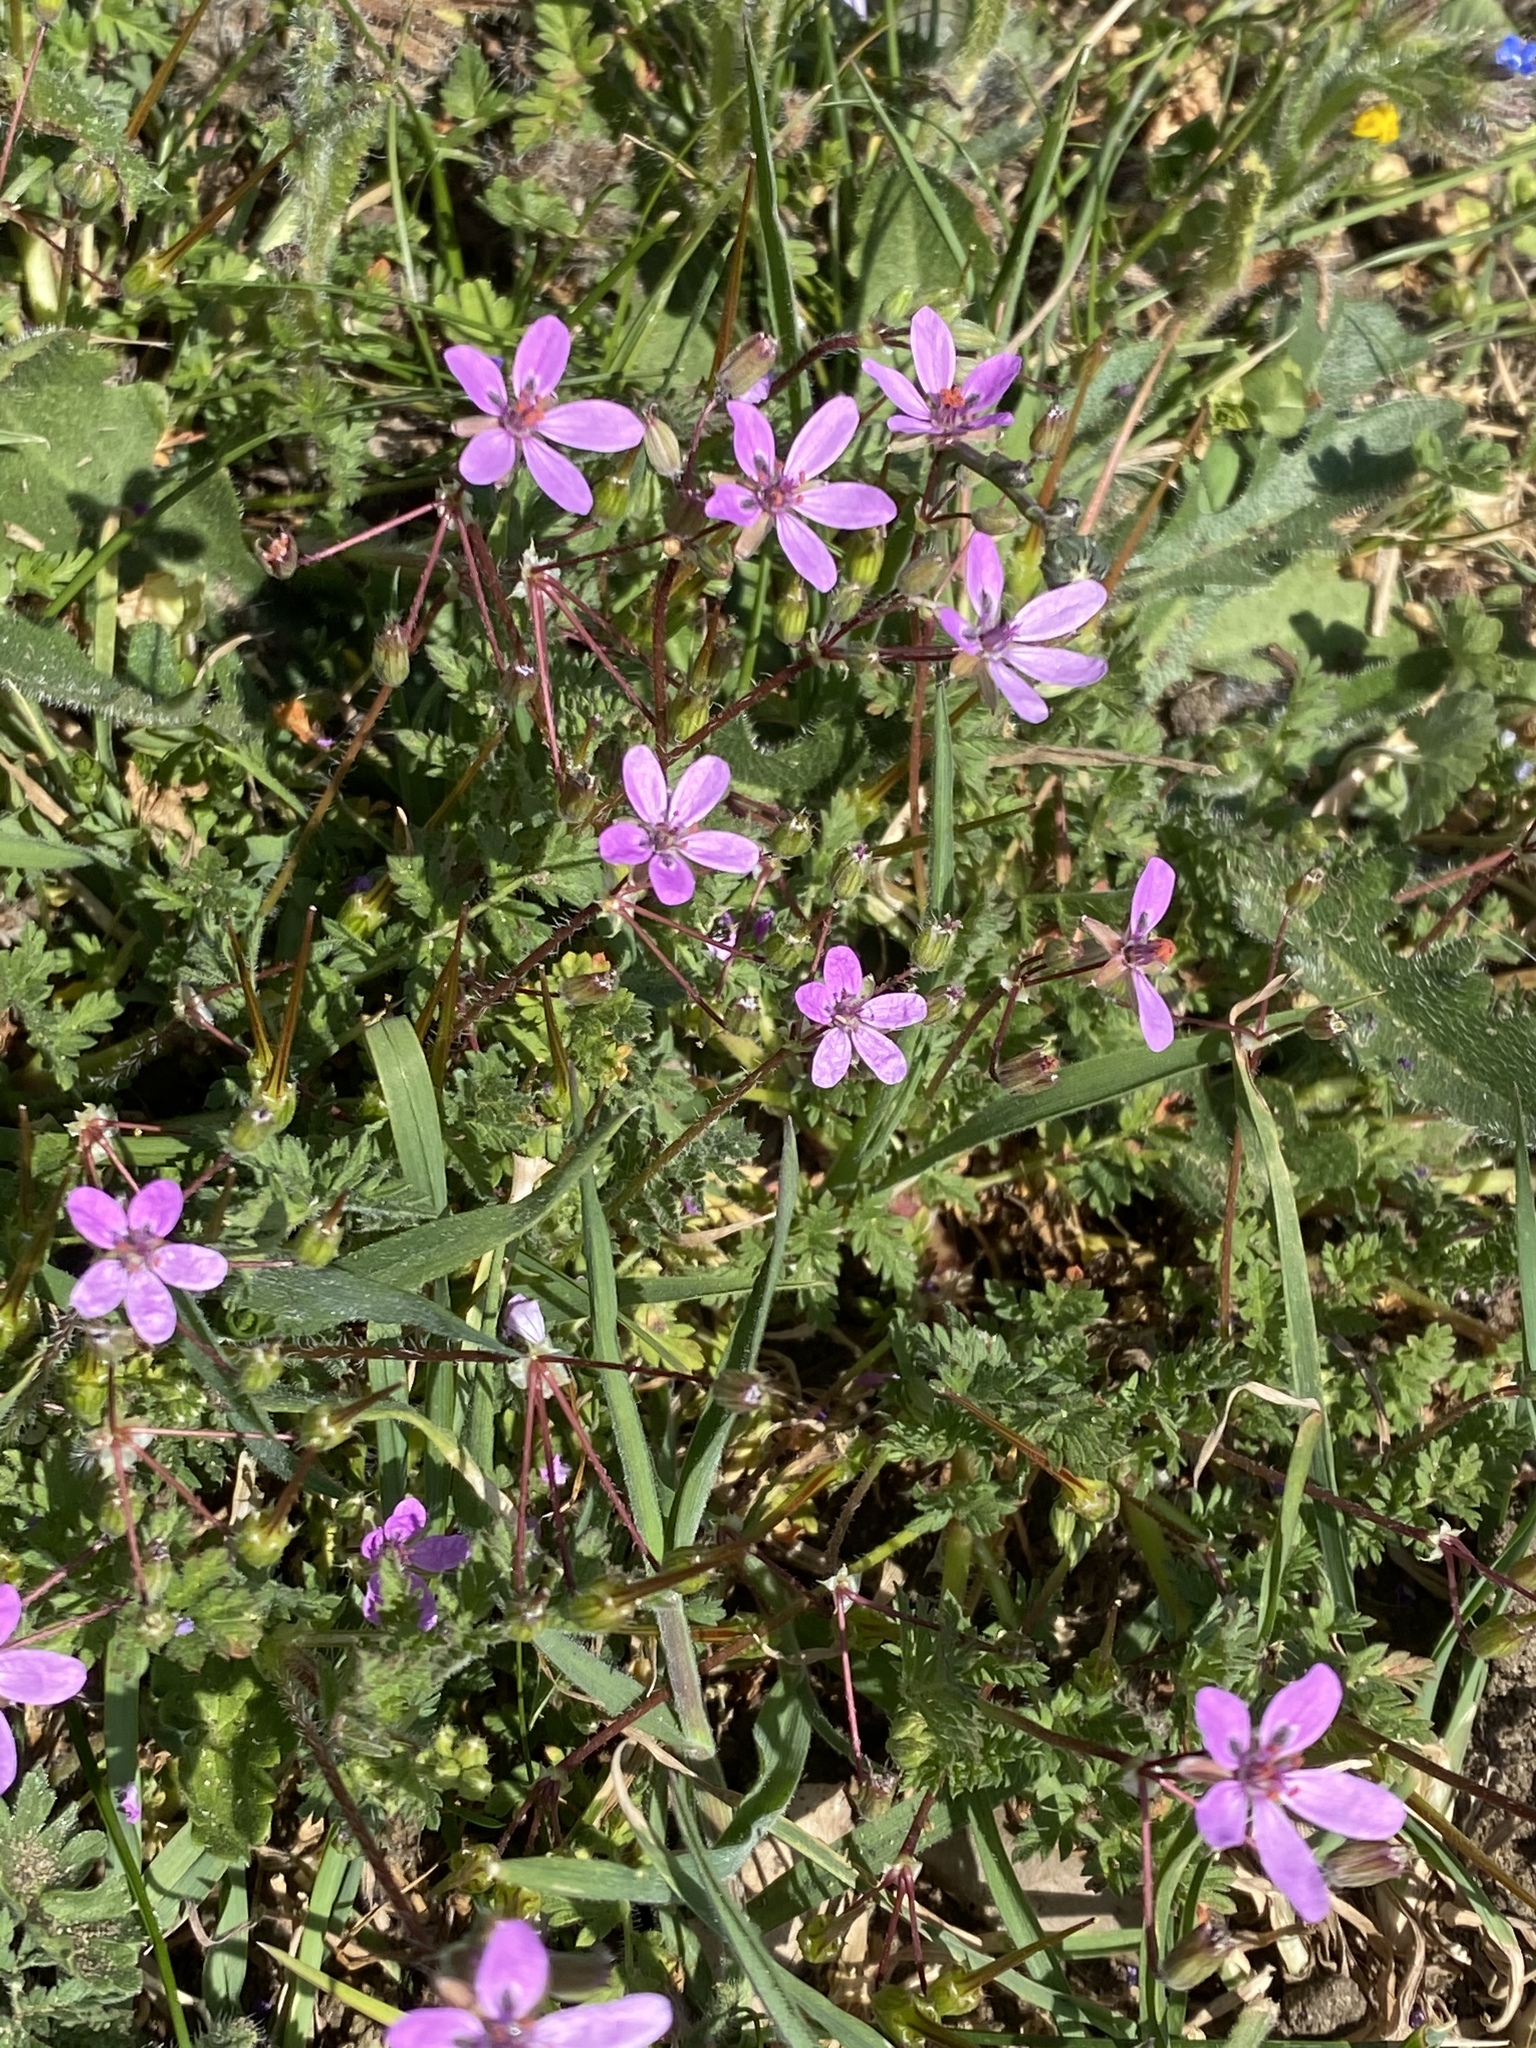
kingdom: Plantae
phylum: Tracheophyta
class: Magnoliopsida
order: Geraniales
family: Geraniaceae
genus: Erodium
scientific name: Erodium cicutarium
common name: Common stork's-bill
